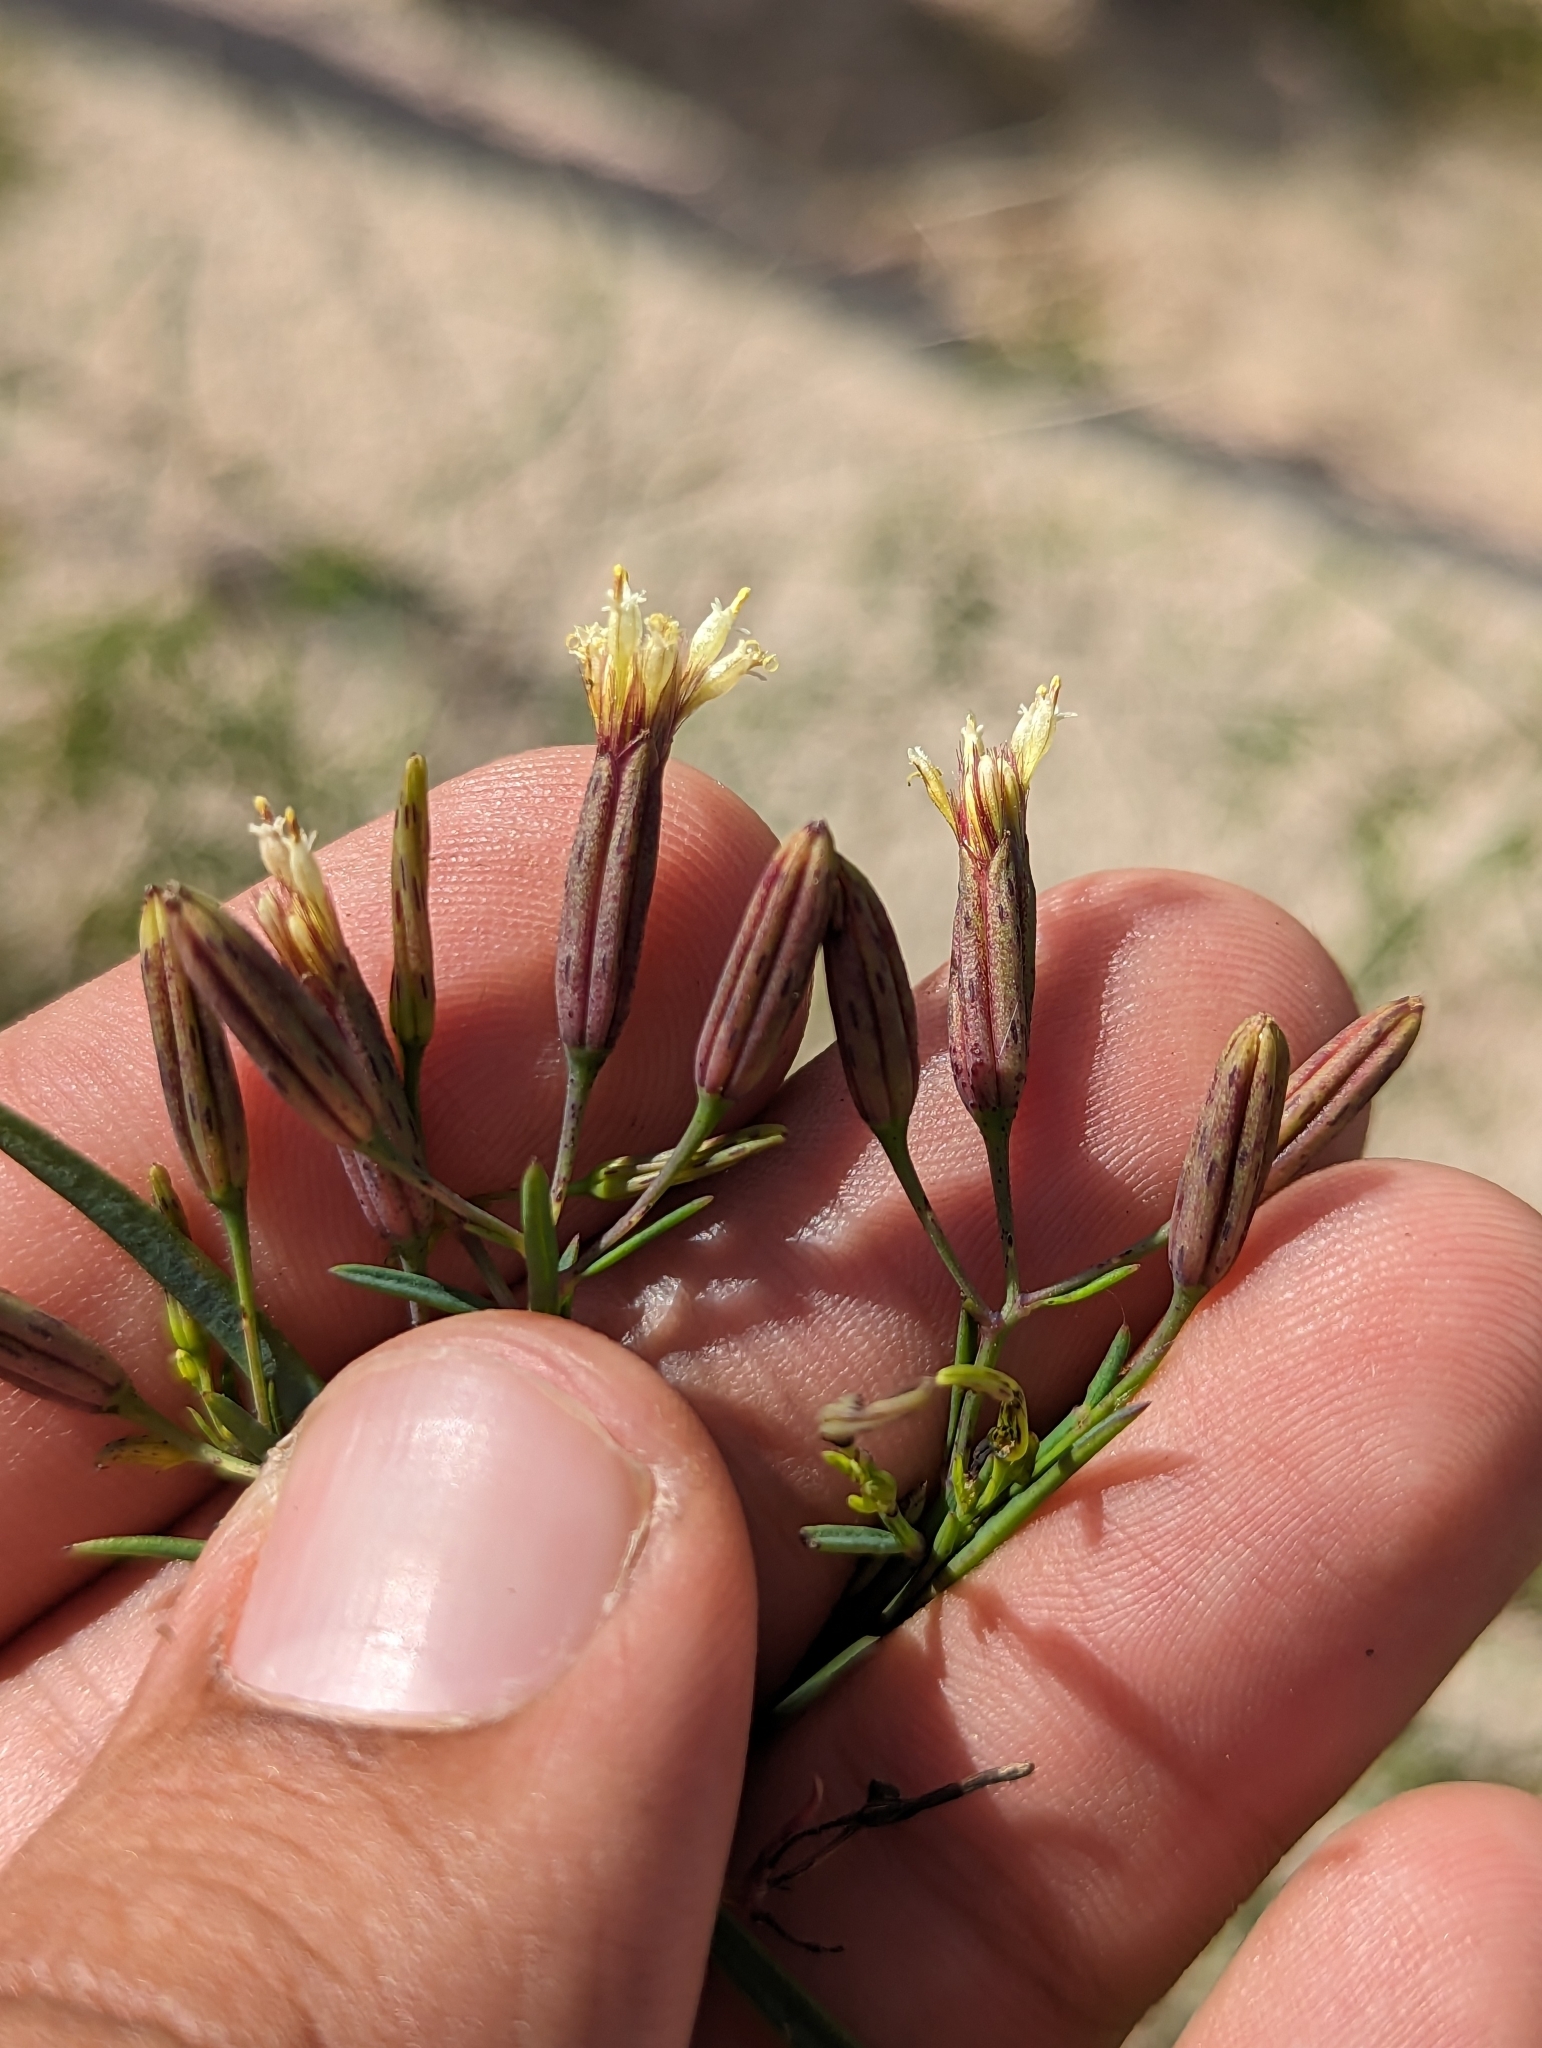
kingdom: Plantae
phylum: Tracheophyta
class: Magnoliopsida
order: Asterales
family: Asteraceae
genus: Porophyllum
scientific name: Porophyllum gracile
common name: Odora
